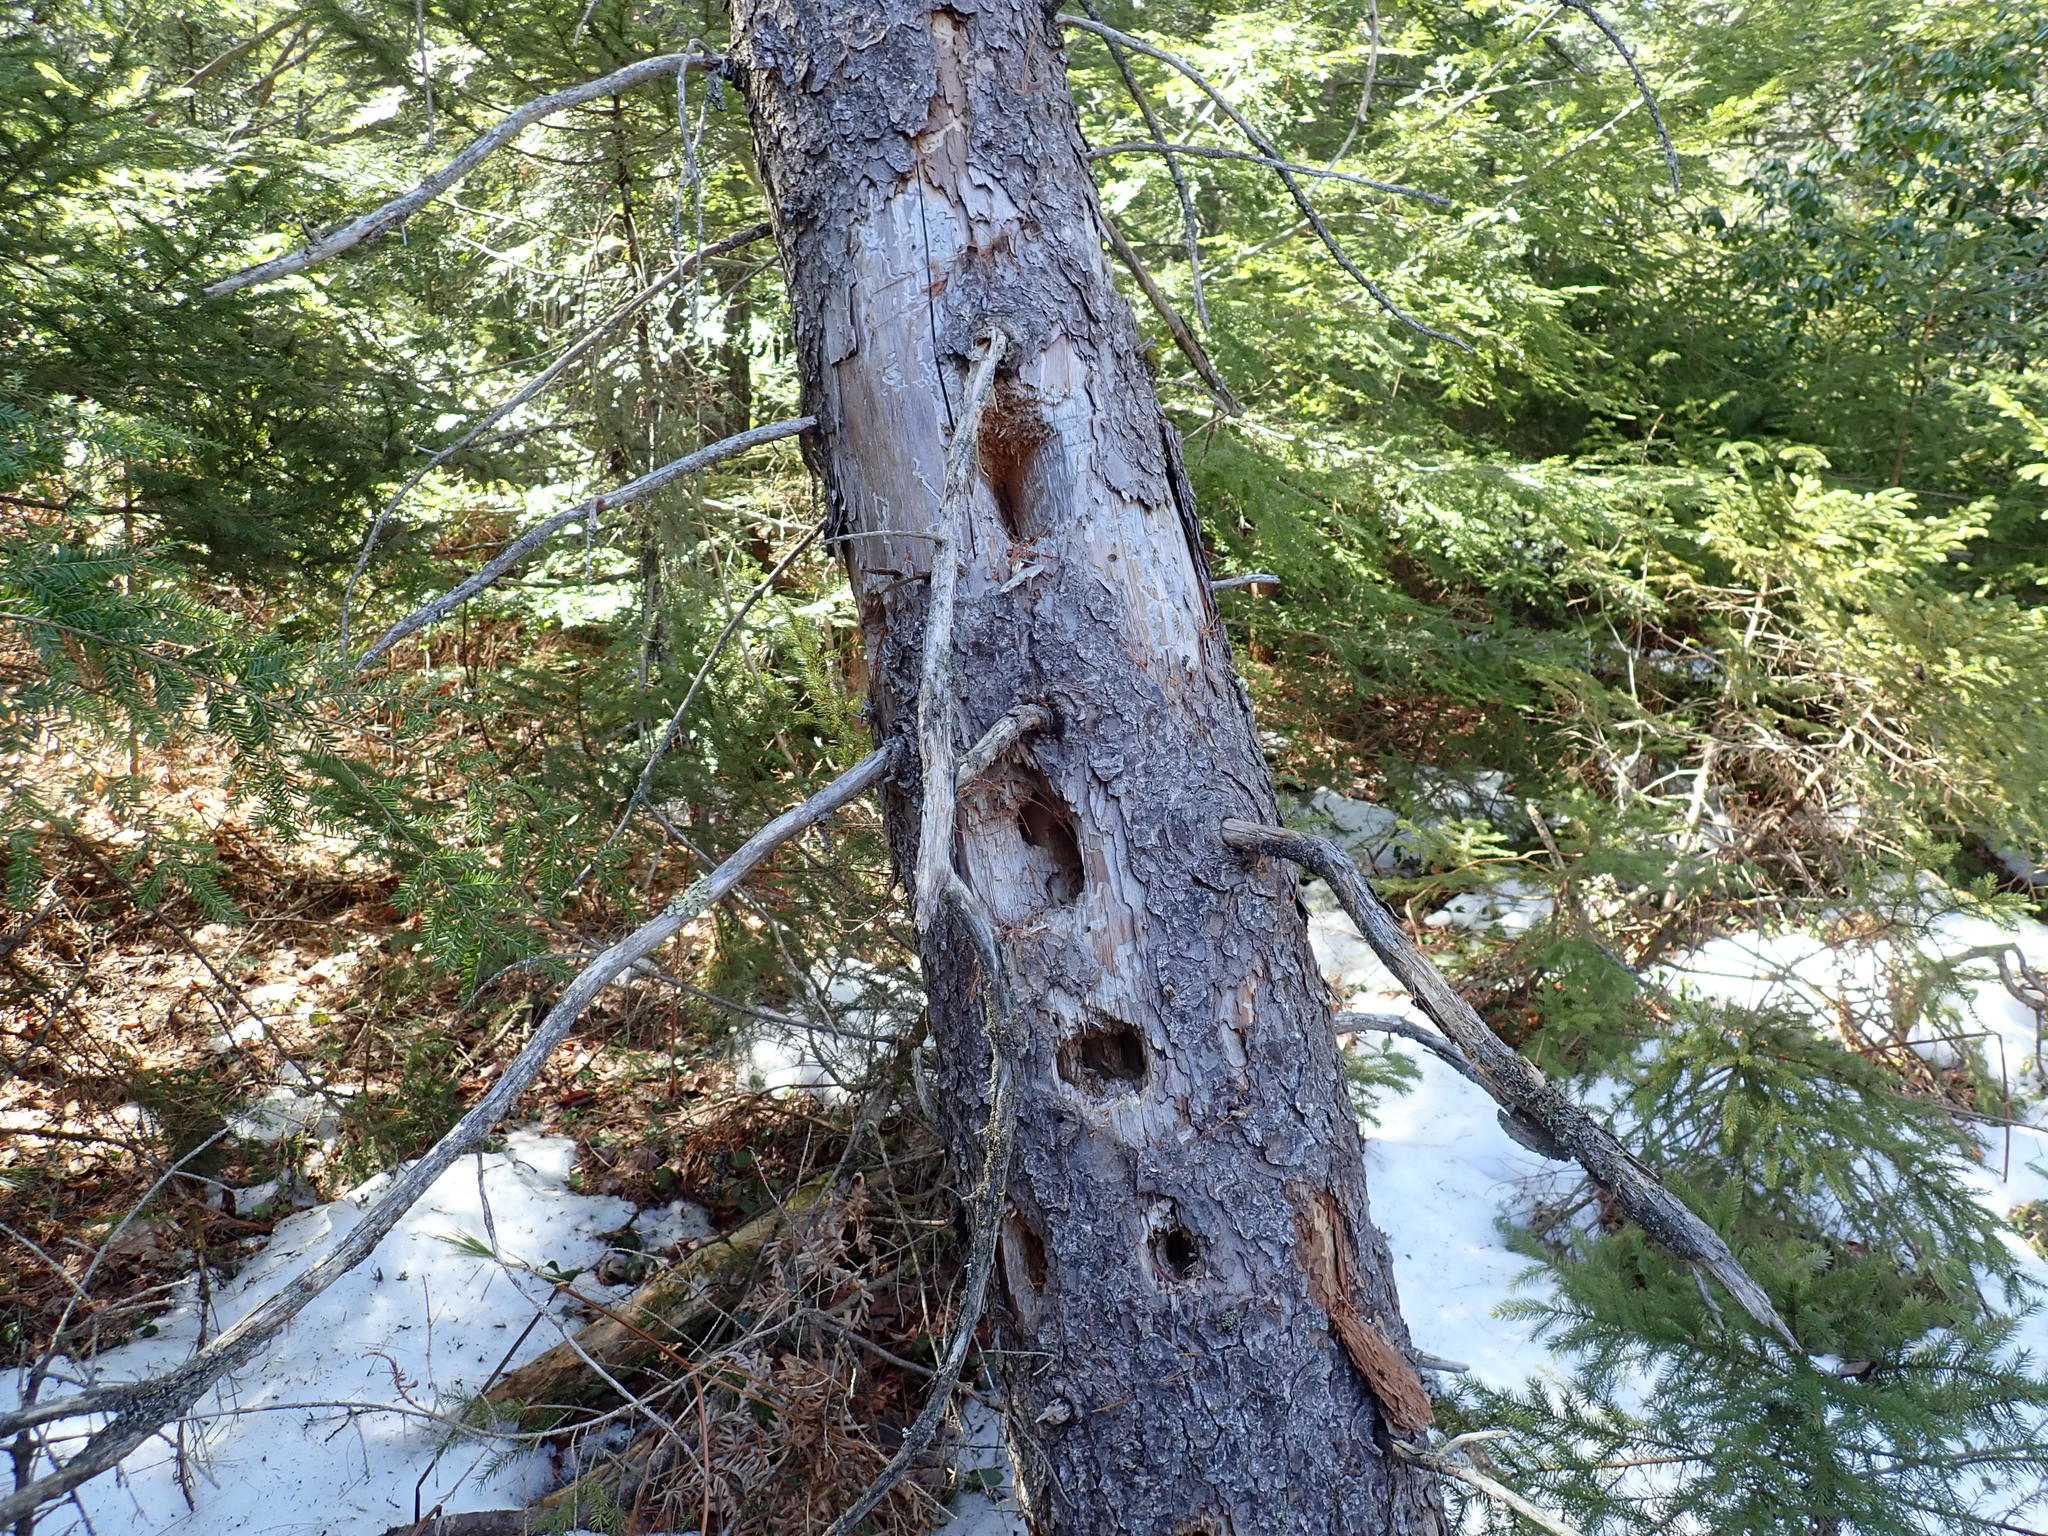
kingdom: Animalia
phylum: Chordata
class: Aves
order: Piciformes
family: Picidae
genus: Dryocopus
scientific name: Dryocopus pileatus
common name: Pileated woodpecker
